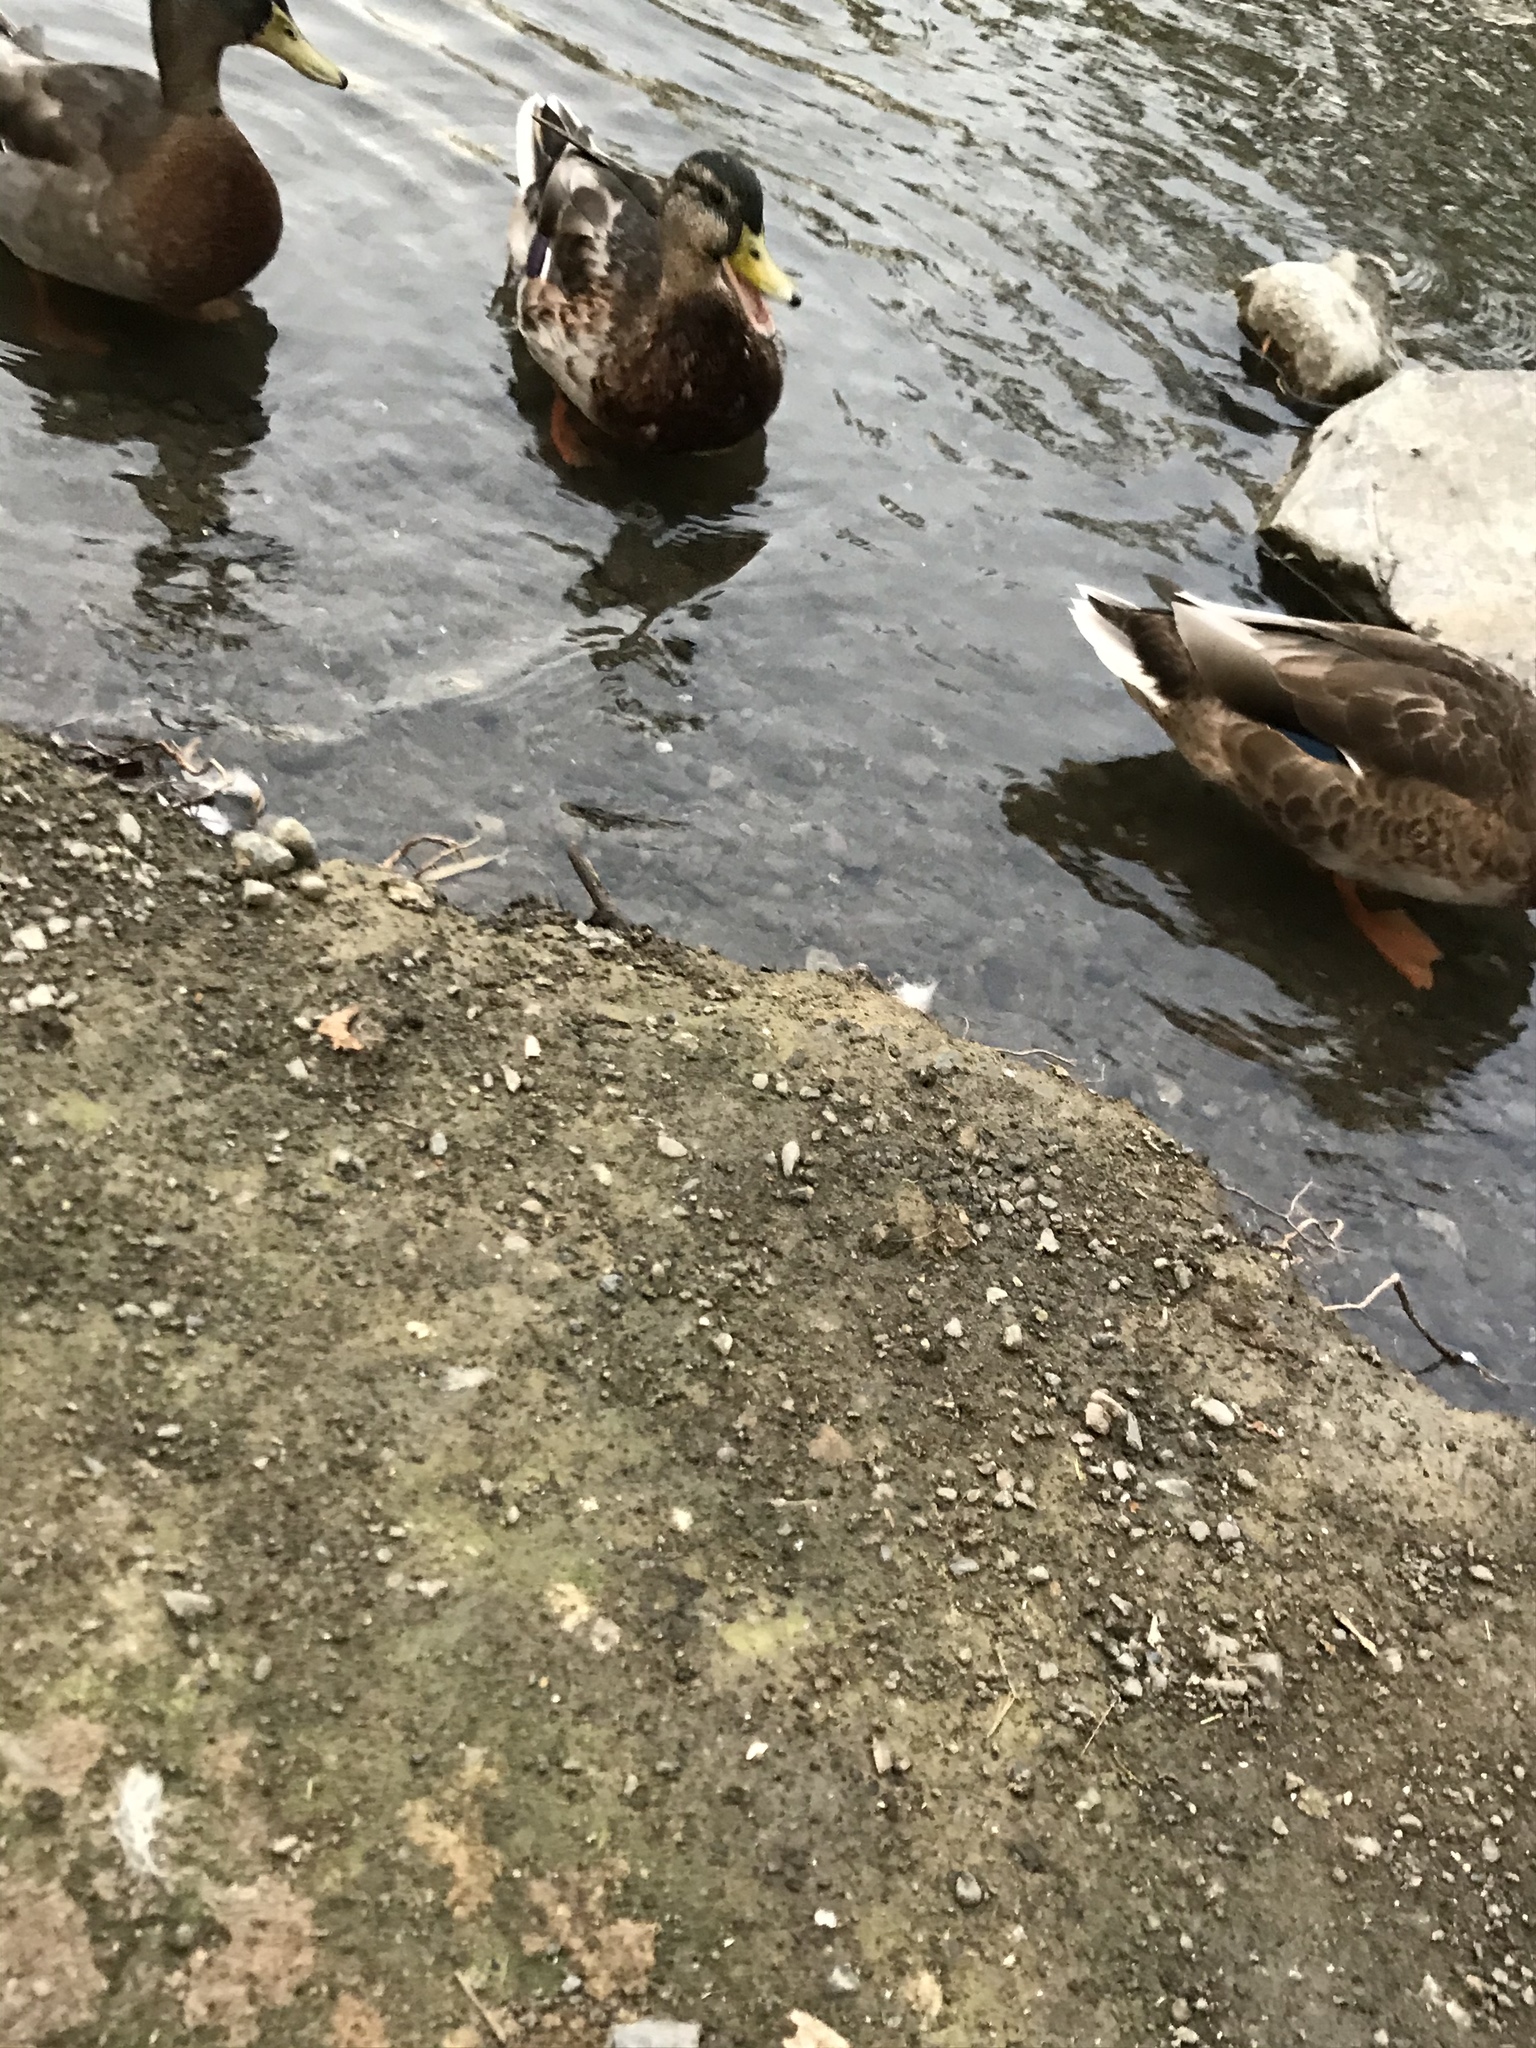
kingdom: Animalia
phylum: Chordata
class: Aves
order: Anseriformes
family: Anatidae
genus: Anas
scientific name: Anas platyrhynchos
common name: Mallard
